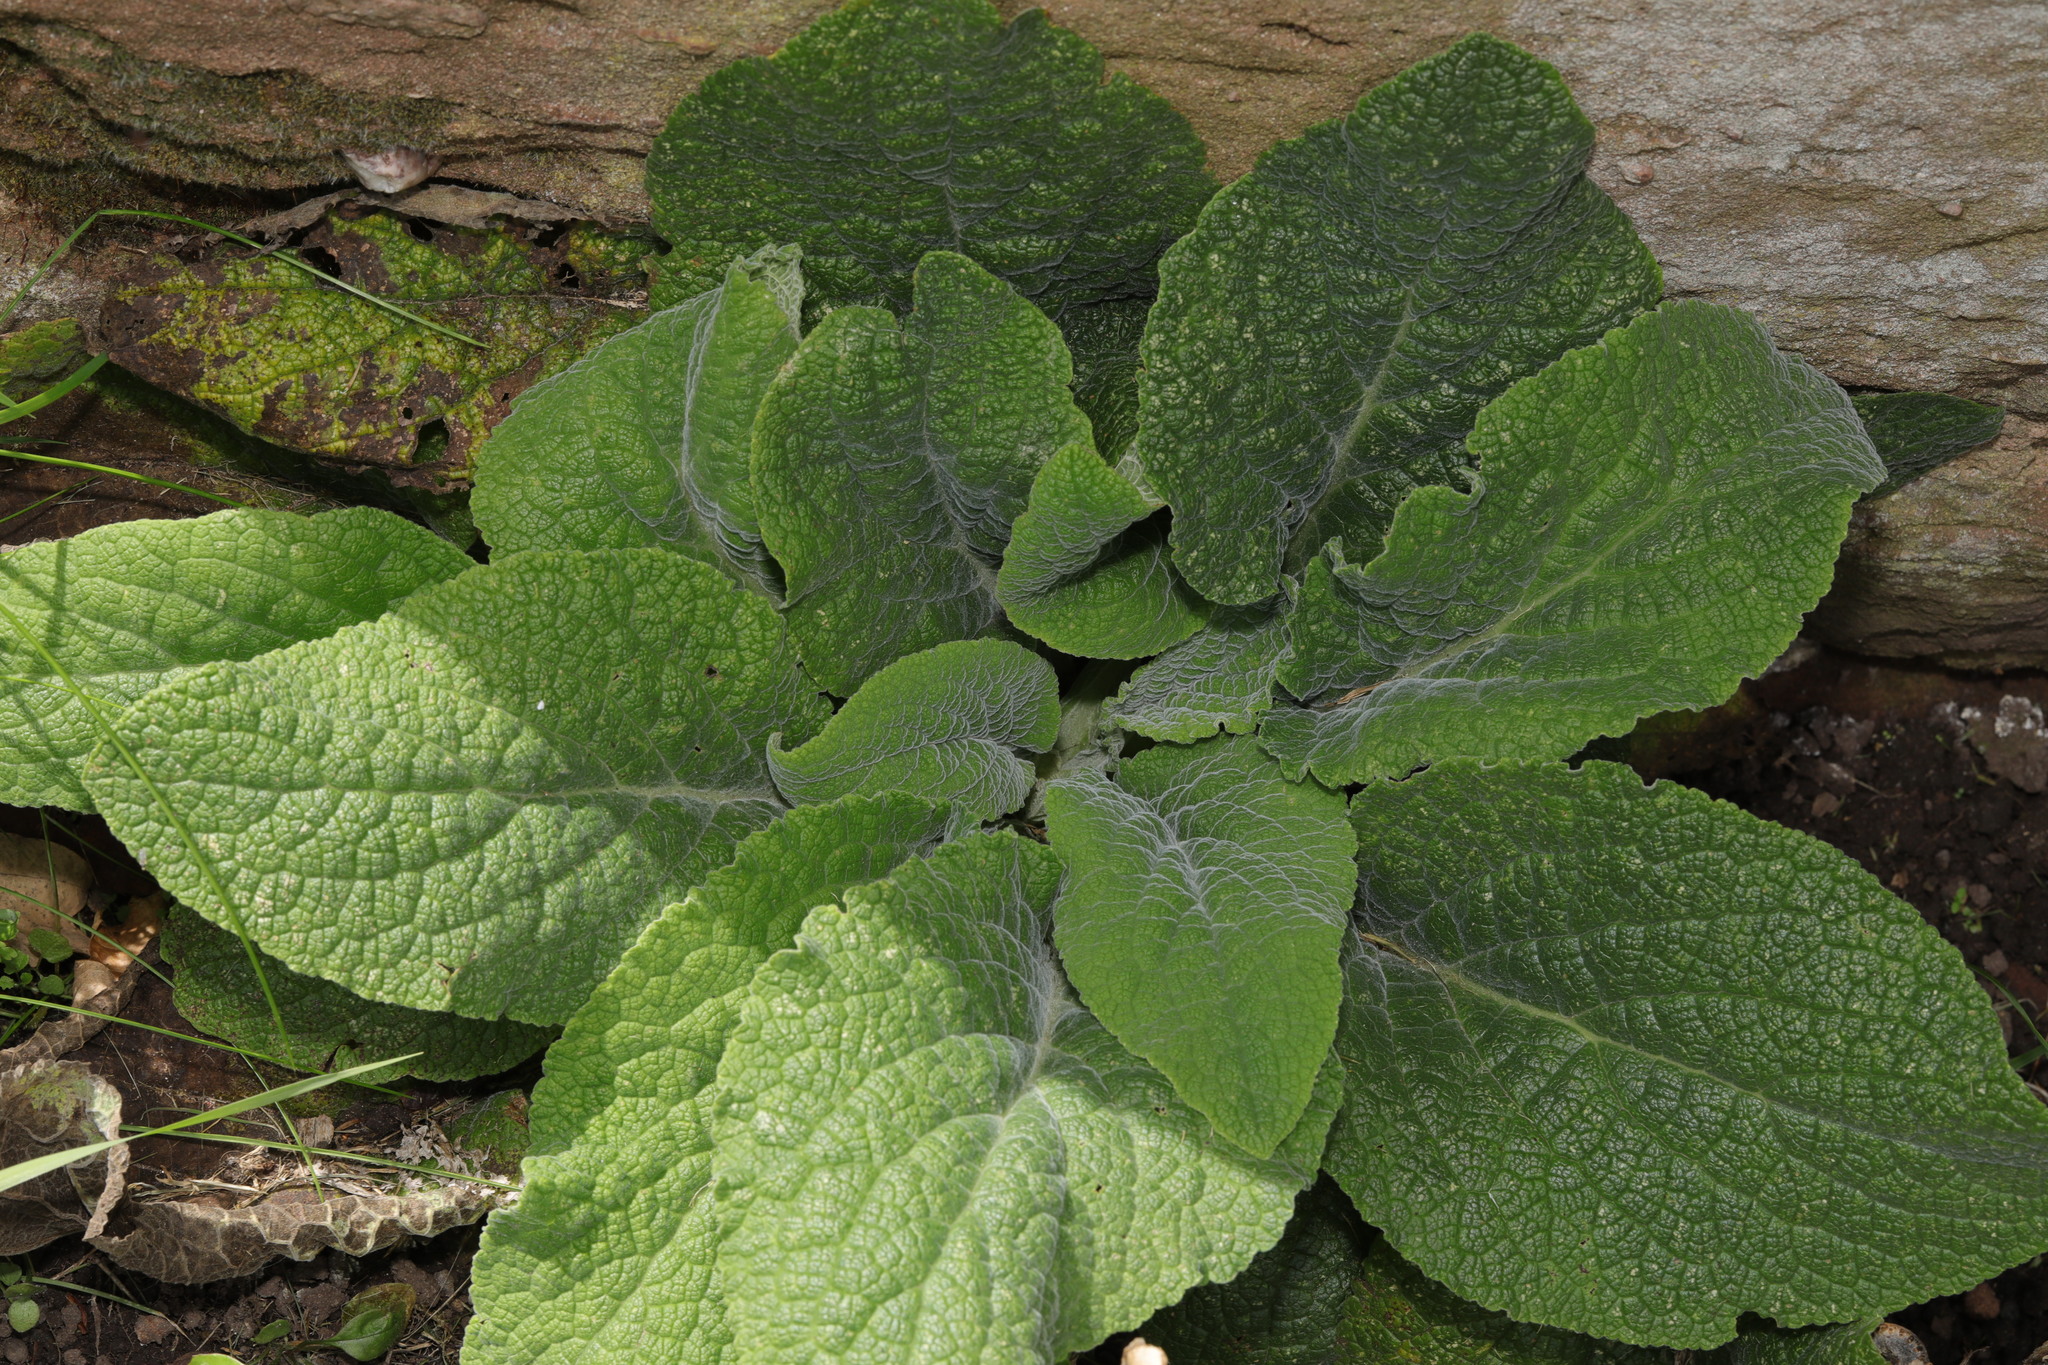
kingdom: Plantae
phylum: Tracheophyta
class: Magnoliopsida
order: Lamiales
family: Plantaginaceae
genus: Digitalis
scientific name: Digitalis purpurea
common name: Foxglove
